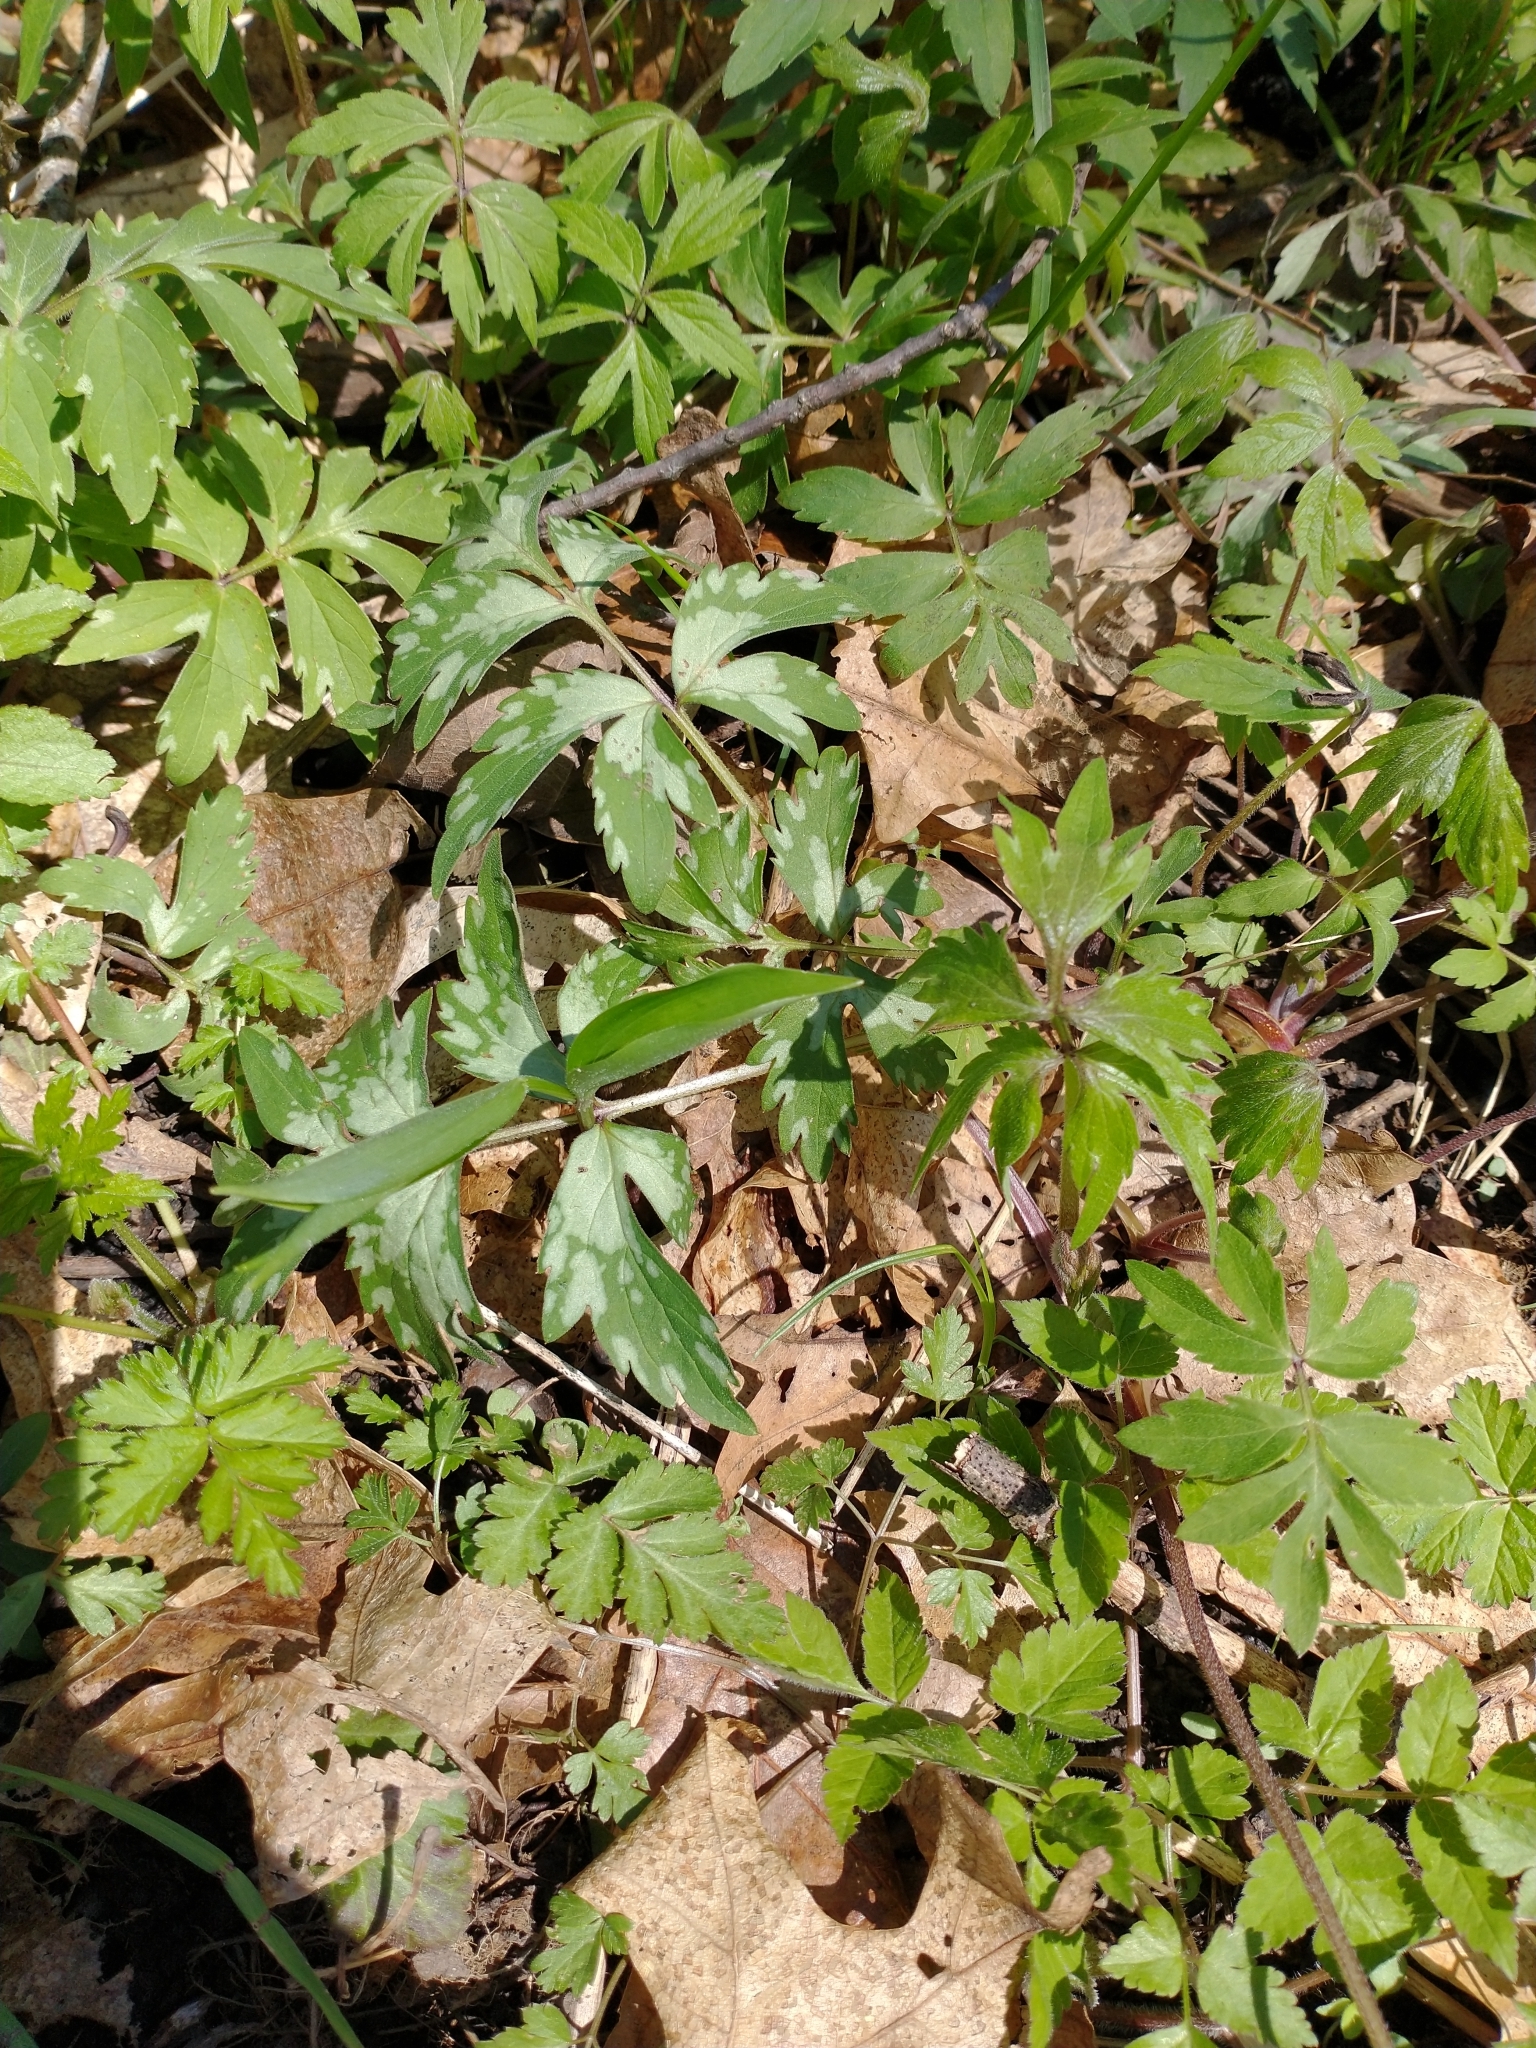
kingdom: Plantae
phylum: Tracheophyta
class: Magnoliopsida
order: Boraginales
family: Hydrophyllaceae
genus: Hydrophyllum
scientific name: Hydrophyllum virginianum
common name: Virginia waterleaf
